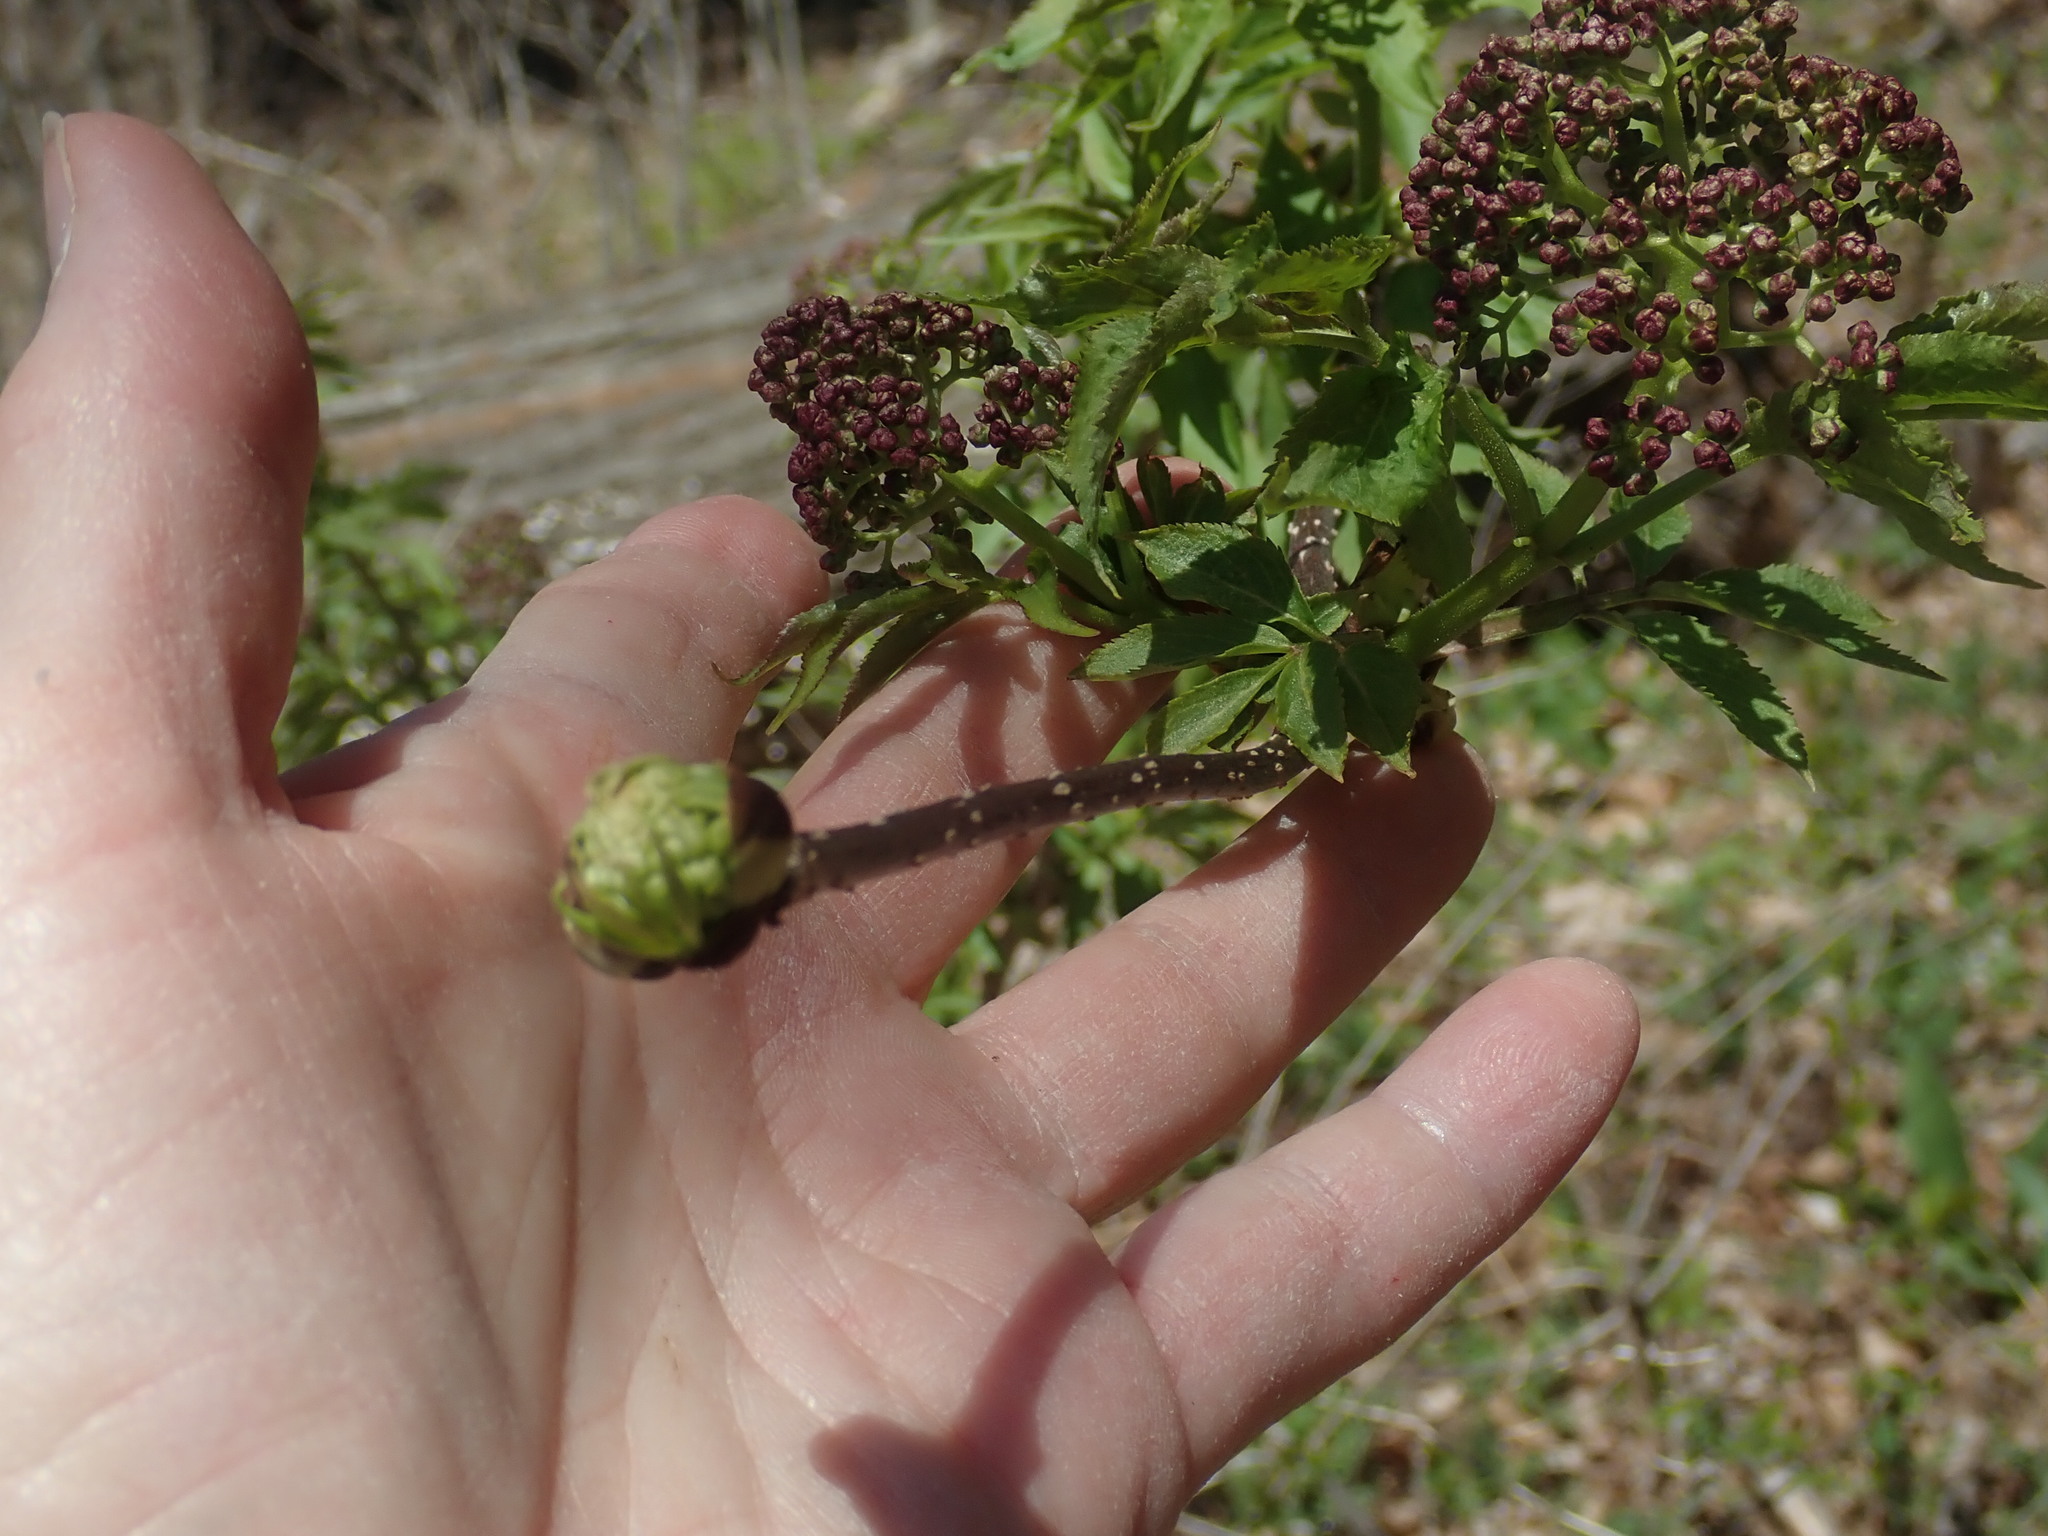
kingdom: Plantae
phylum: Tracheophyta
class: Magnoliopsida
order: Dipsacales
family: Viburnaceae
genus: Sambucus
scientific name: Sambucus racemosa
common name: Red-berried elder
